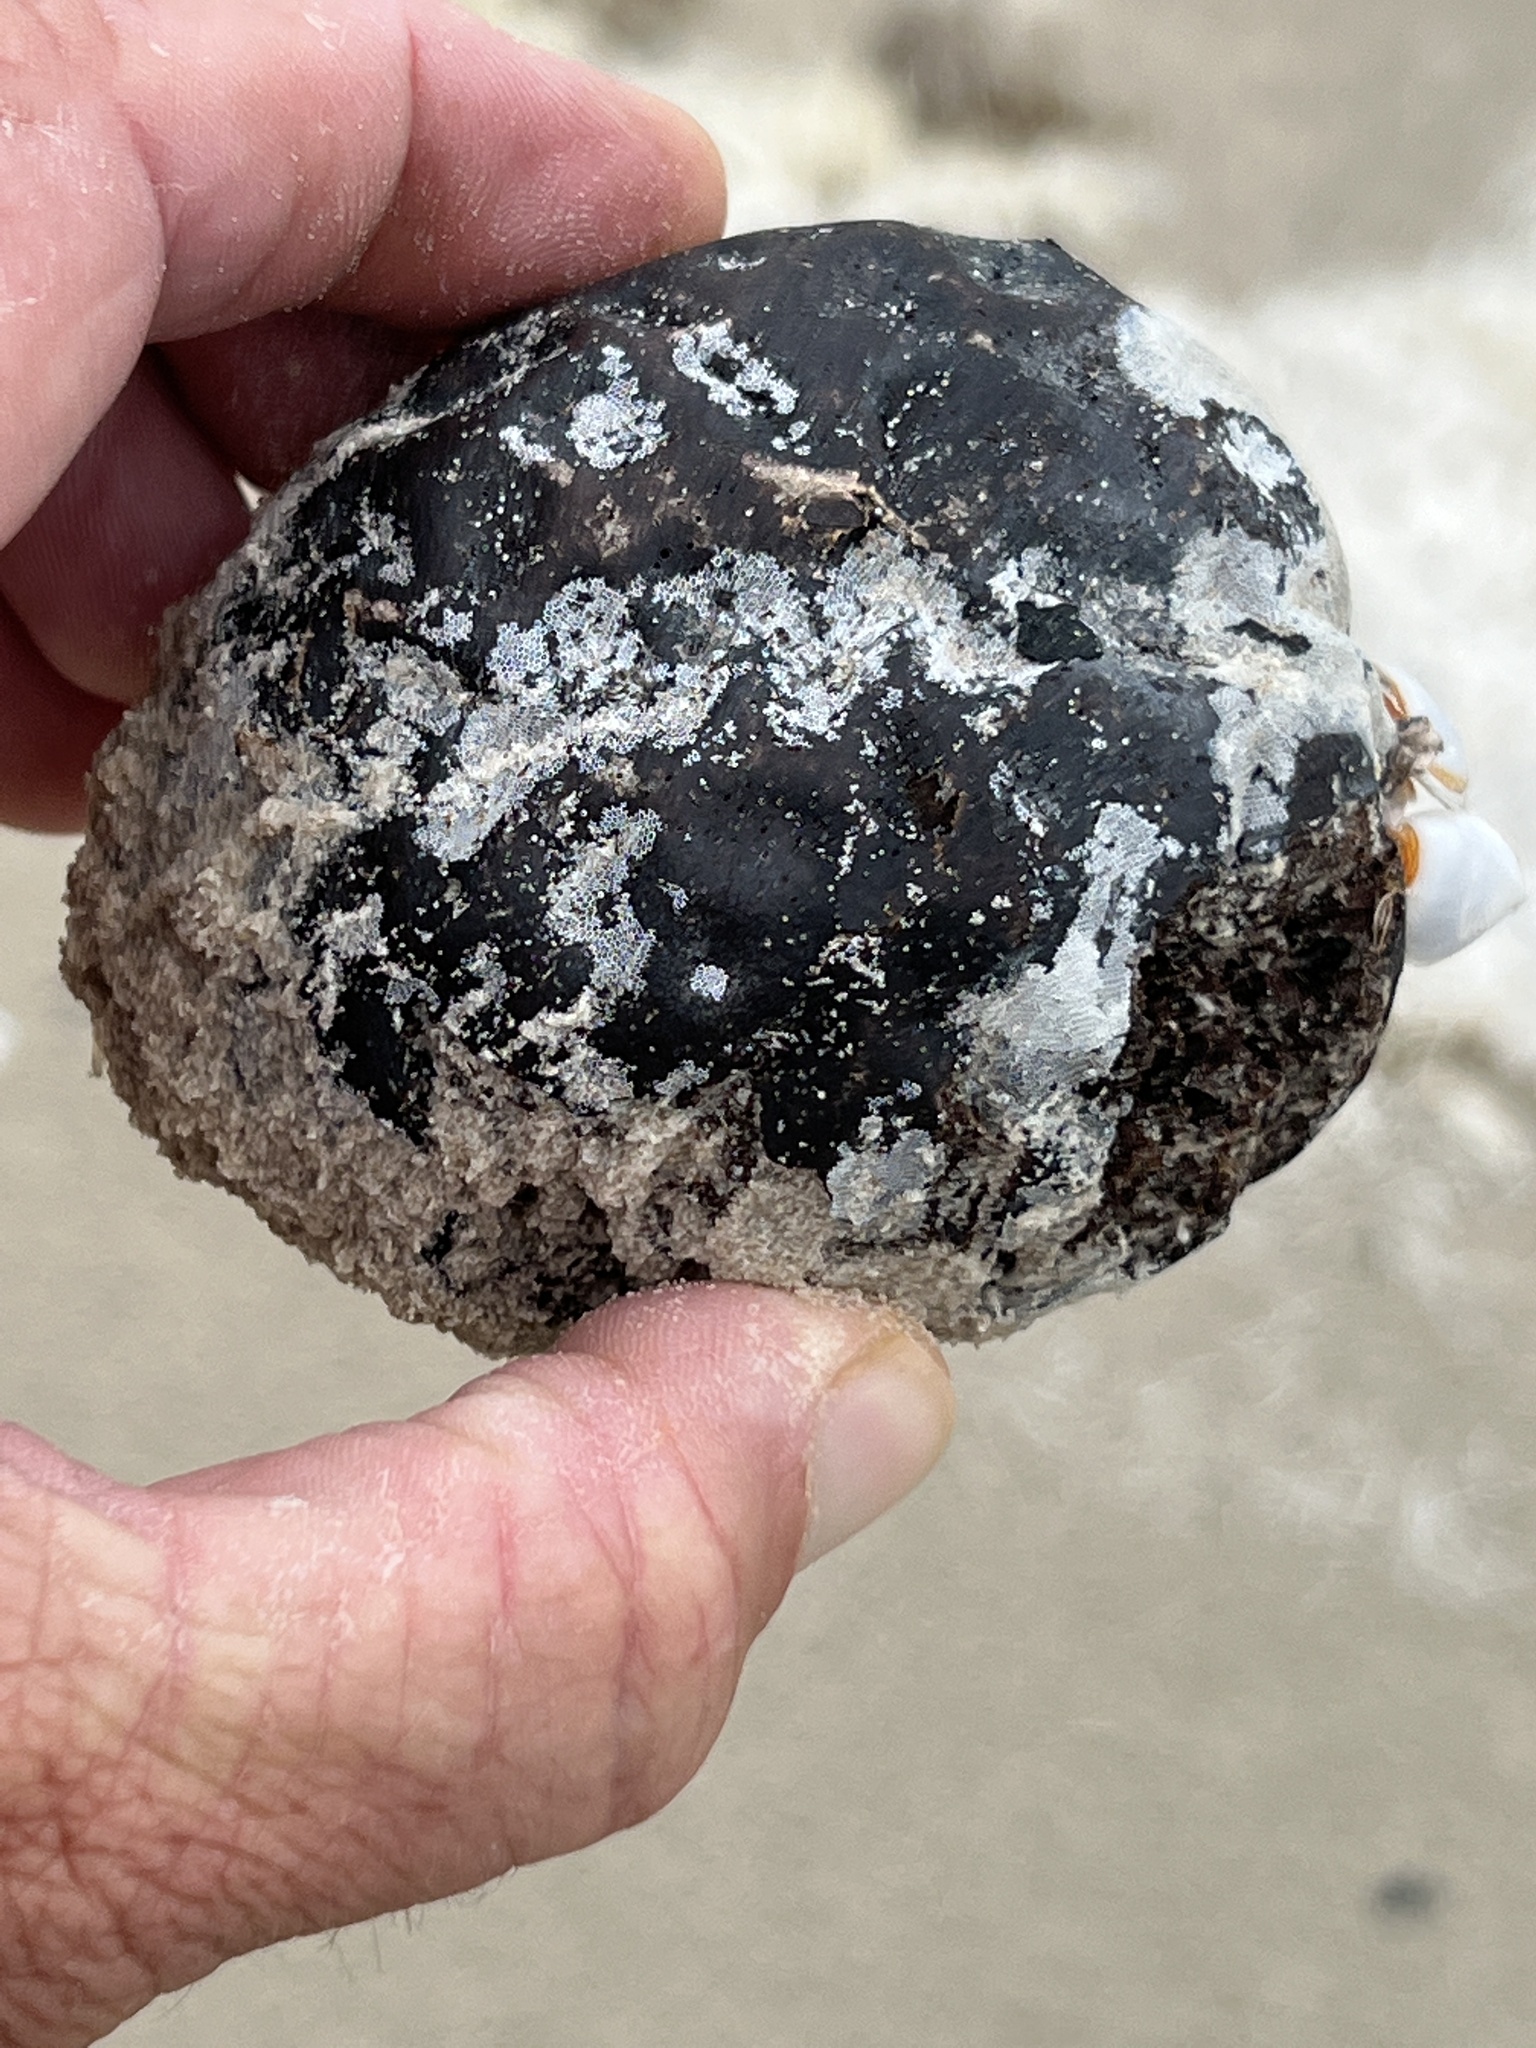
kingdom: Plantae
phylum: Tracheophyta
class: Magnoliopsida
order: Fabales
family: Fabaceae
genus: Andira
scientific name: Andira galeottiana
